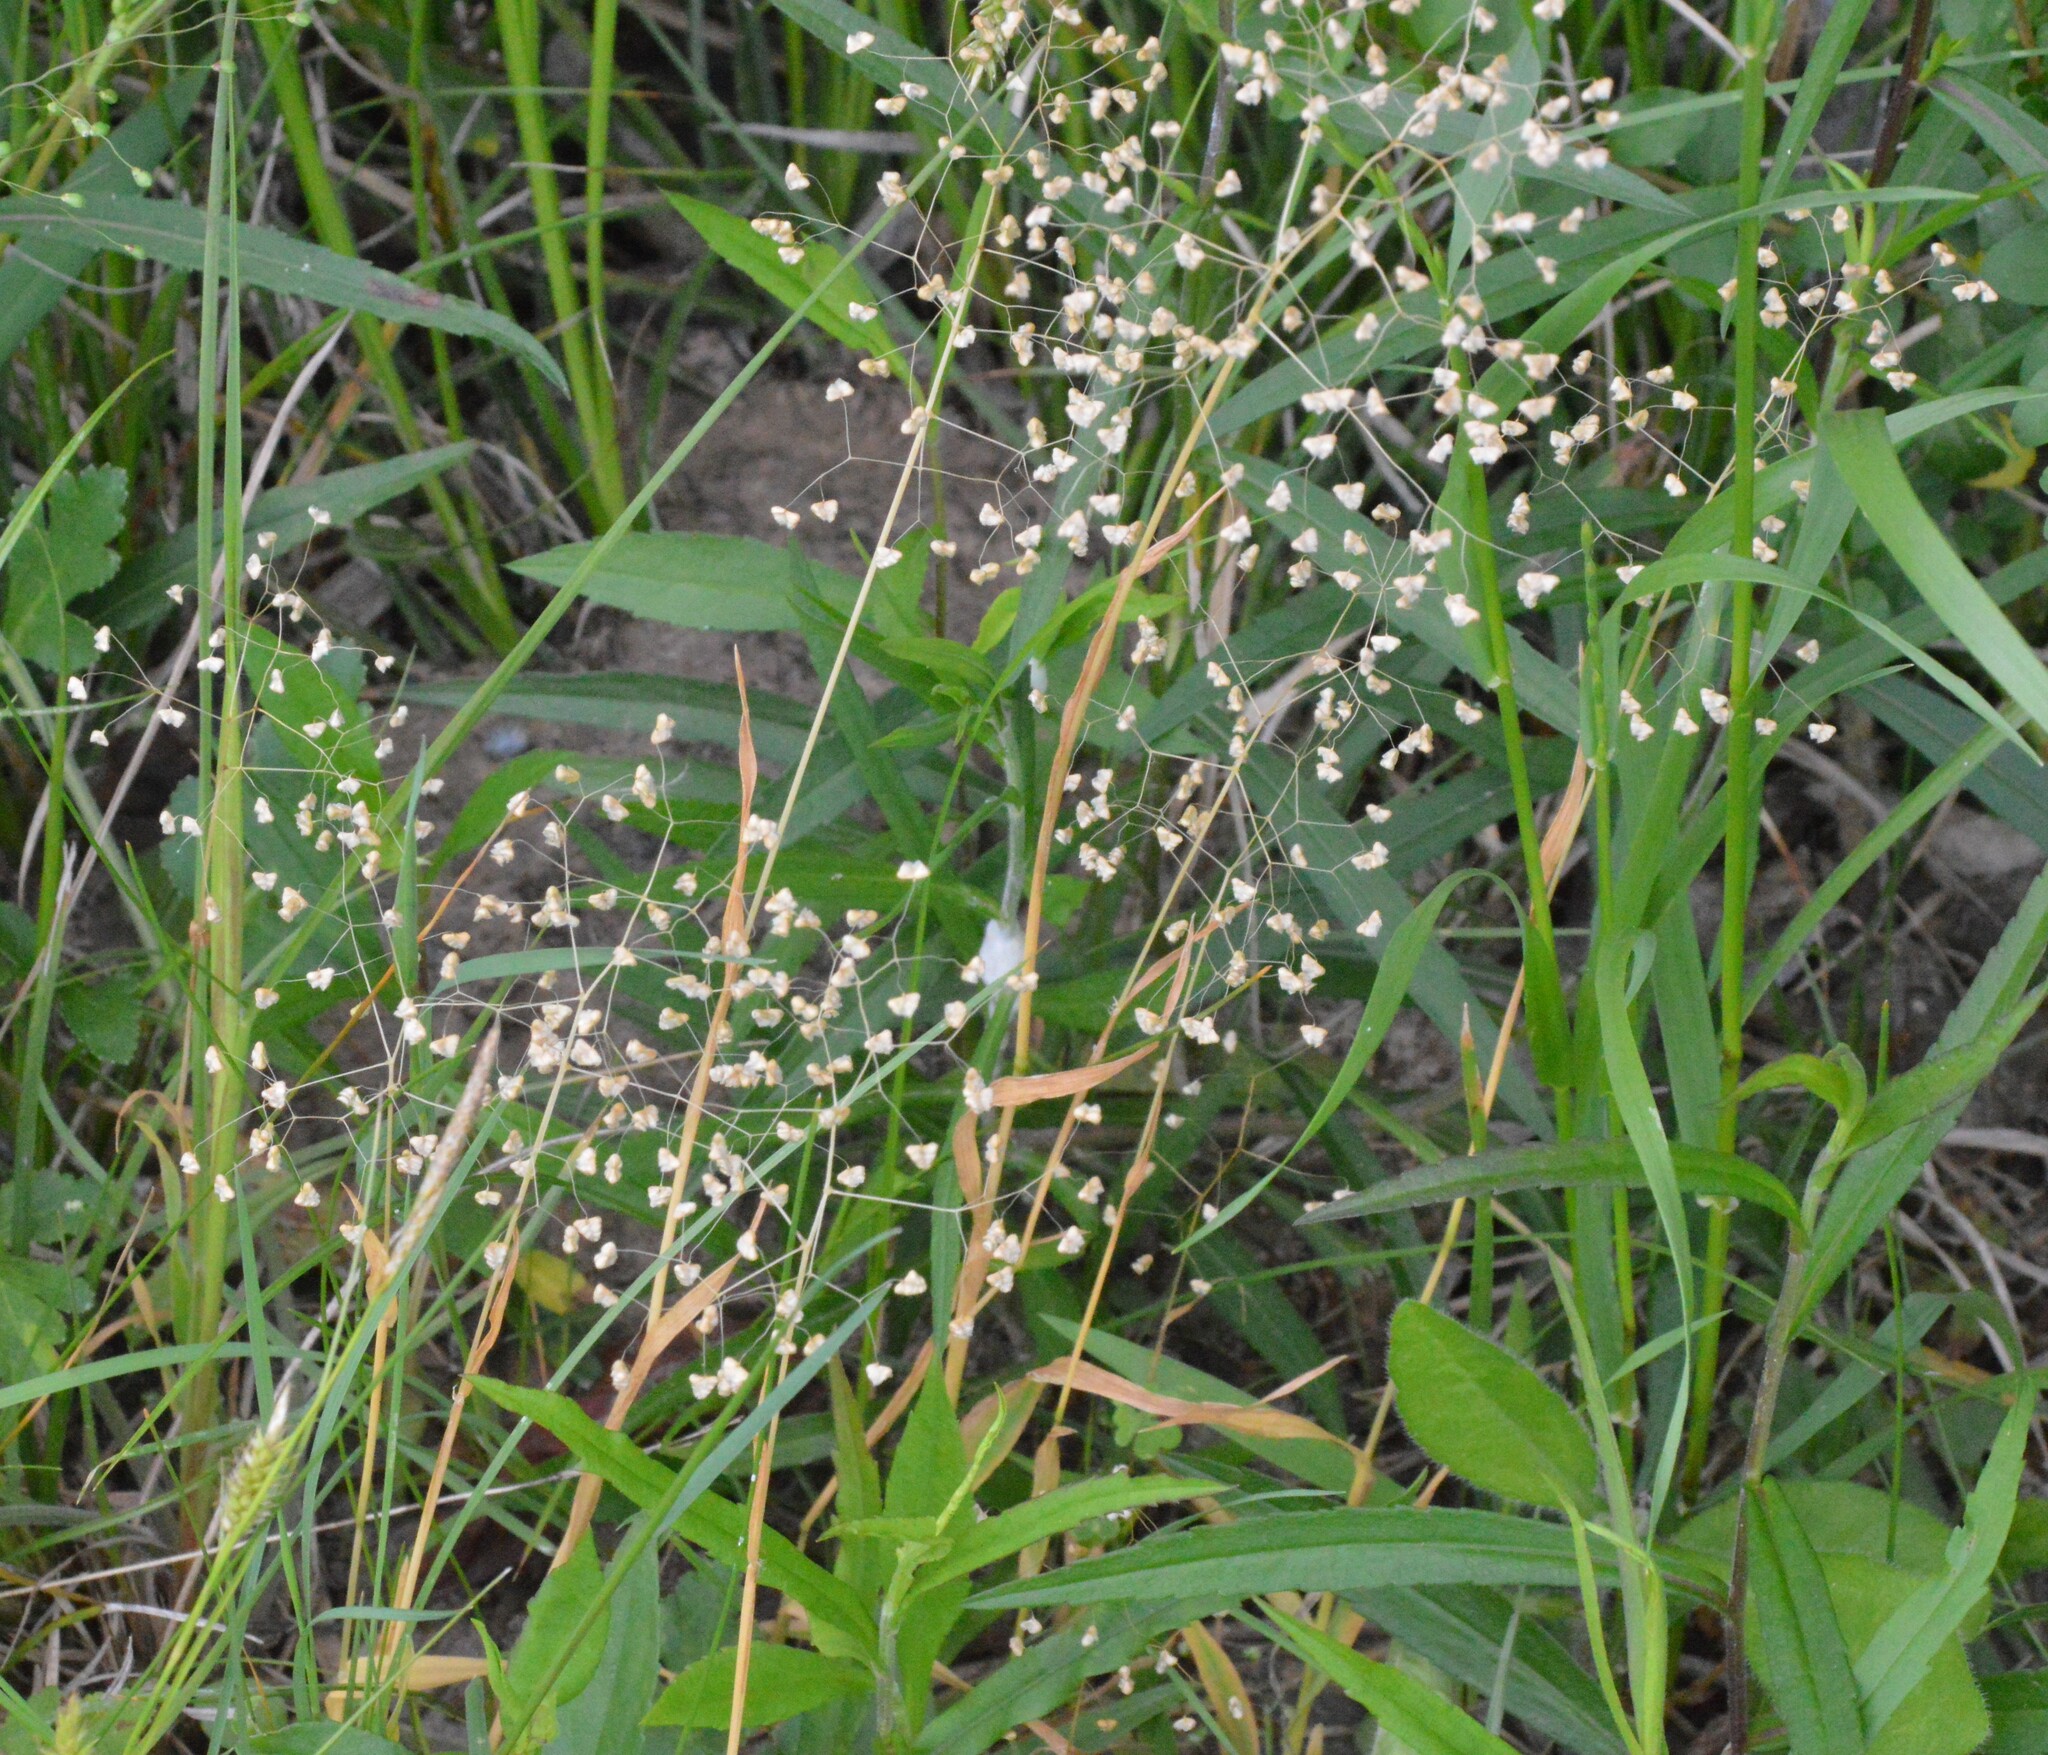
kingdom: Plantae
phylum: Tracheophyta
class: Liliopsida
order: Poales
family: Poaceae
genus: Briza
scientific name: Briza minor
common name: Lesser quaking-grass
